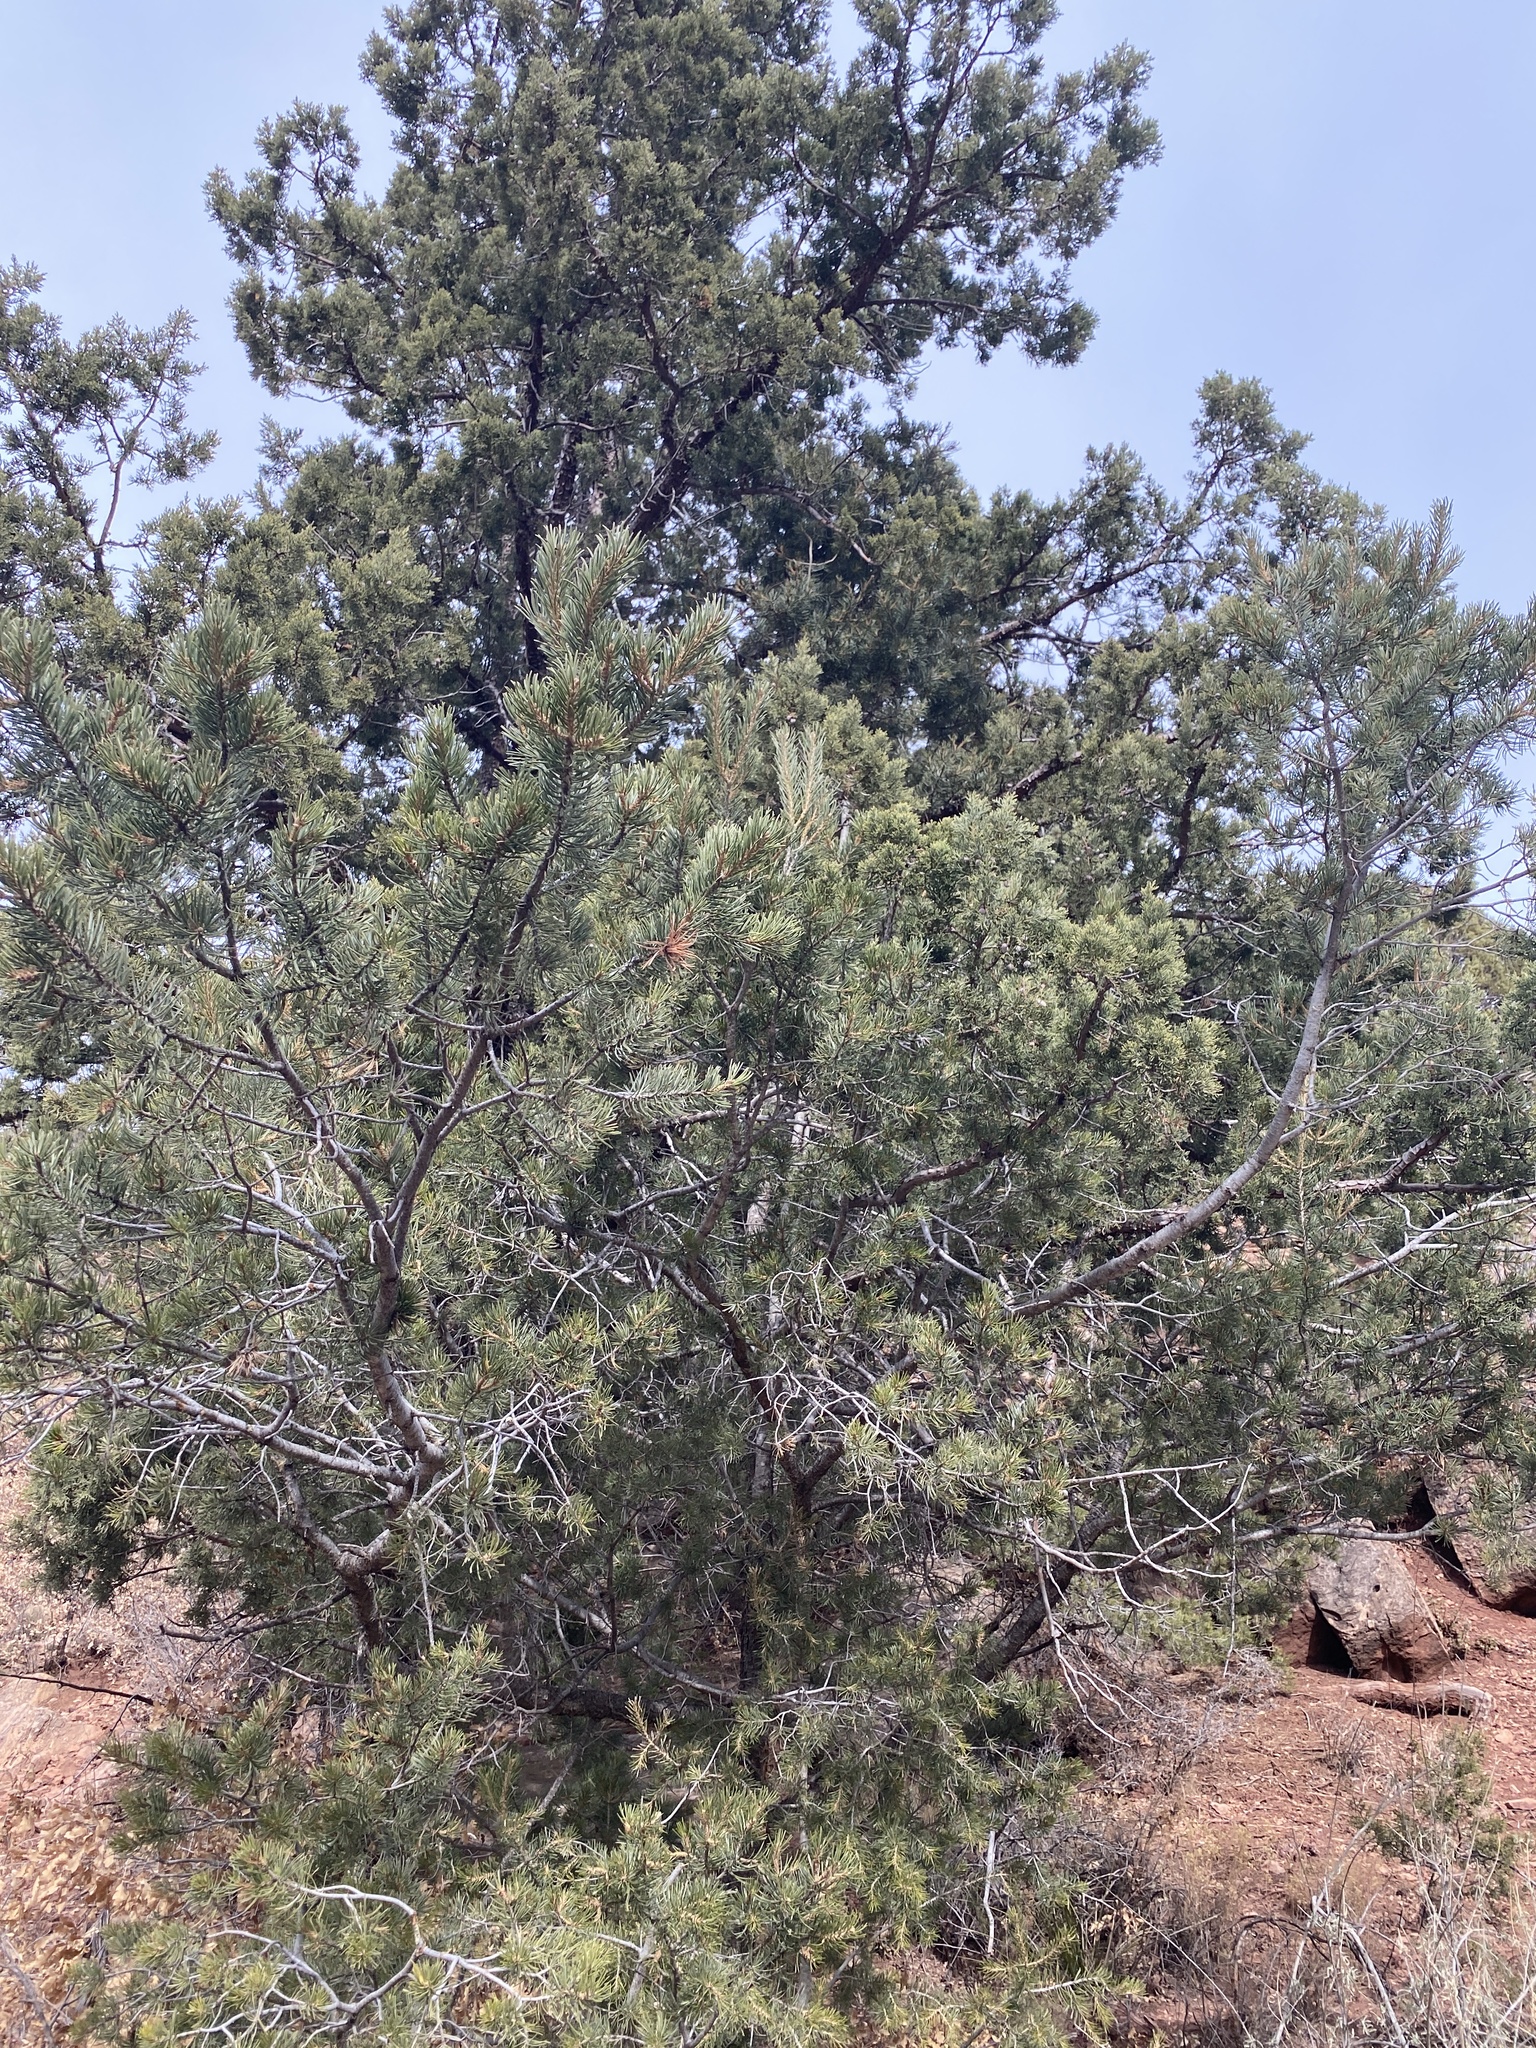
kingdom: Plantae
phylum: Tracheophyta
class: Pinopsida
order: Pinales
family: Pinaceae
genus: Pinus
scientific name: Pinus edulis
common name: Colorado pinyon
